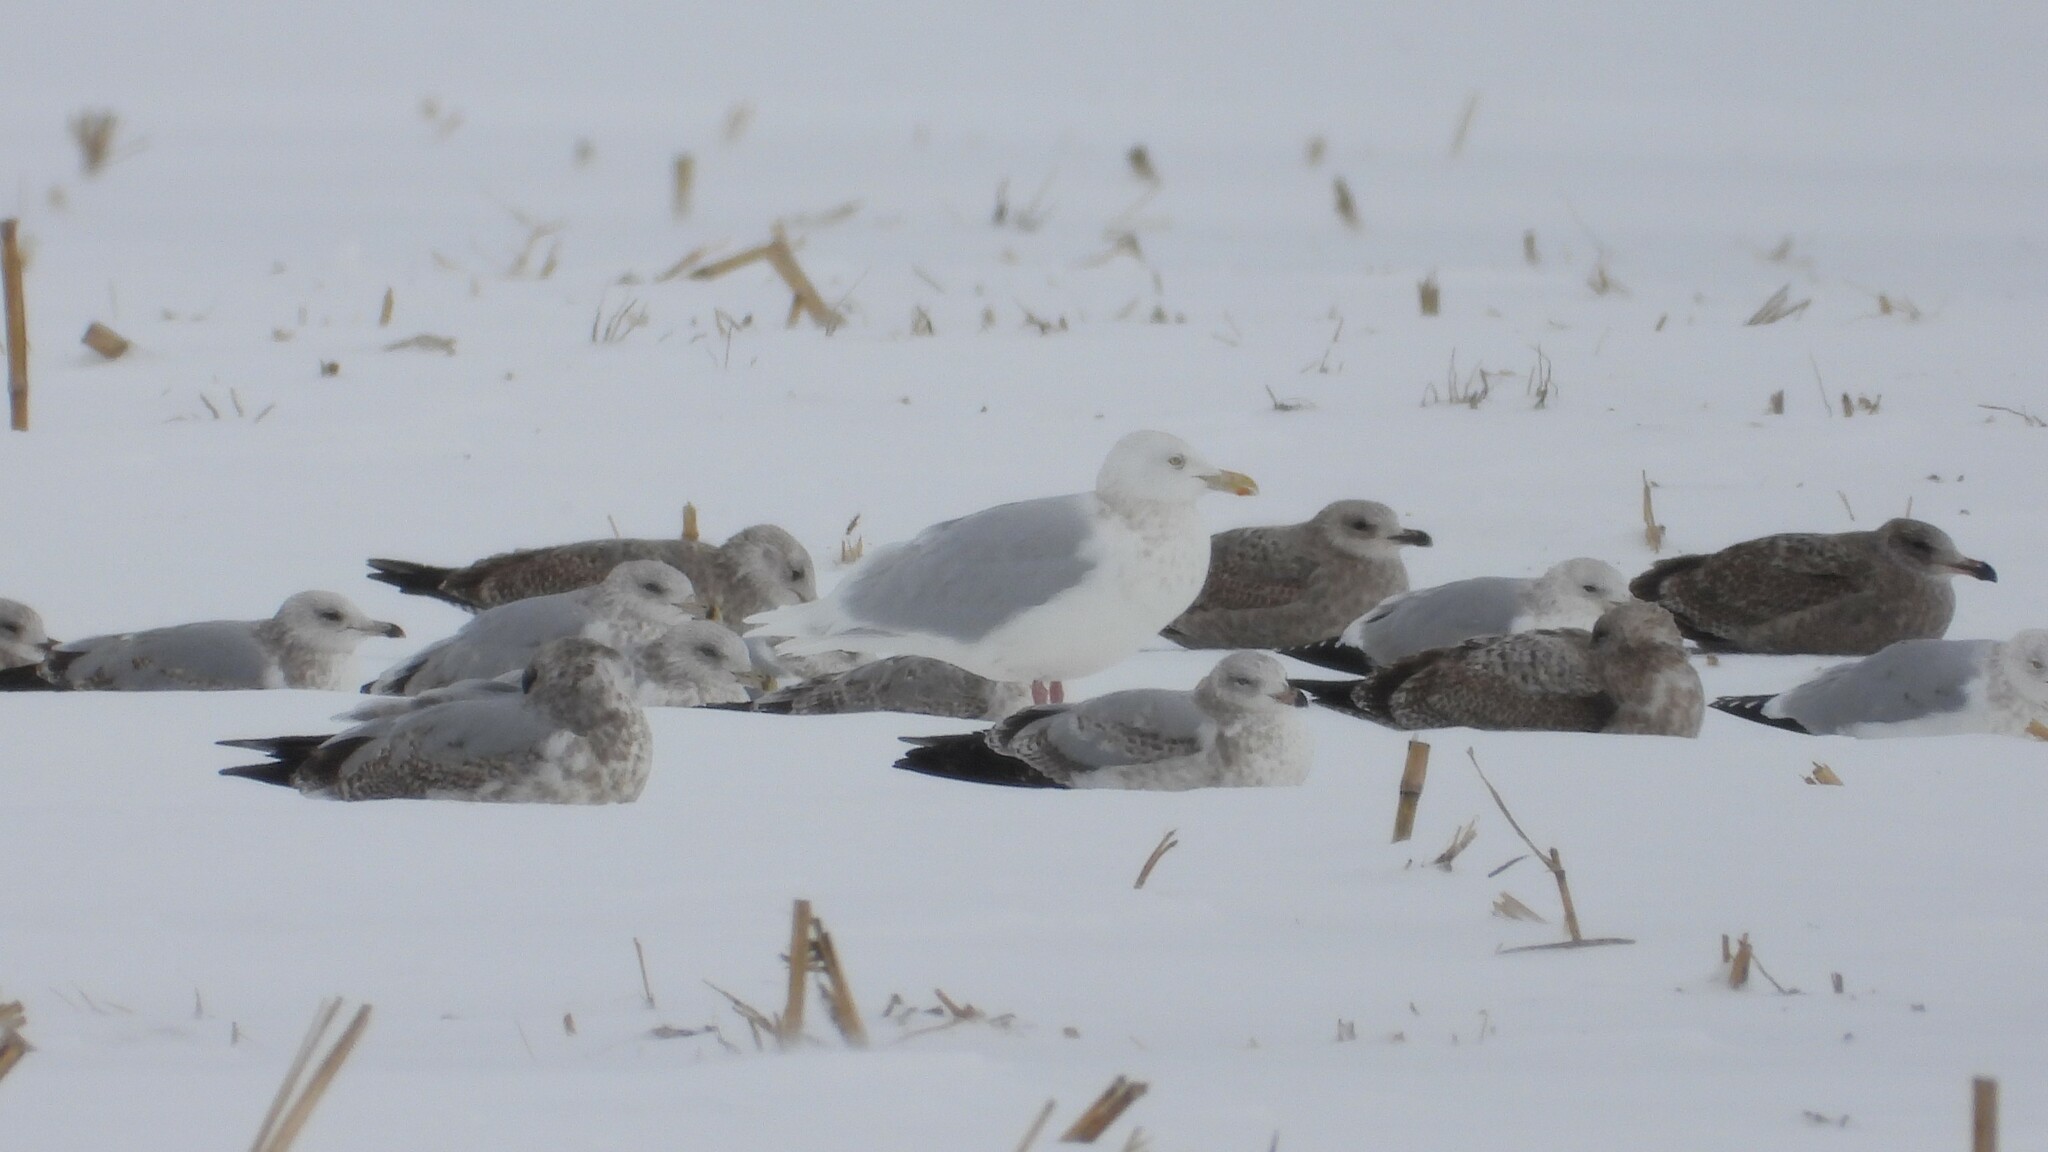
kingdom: Animalia
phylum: Chordata
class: Aves
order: Charadriiformes
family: Laridae
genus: Larus
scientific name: Larus hyperboreus
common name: Glaucous gull
